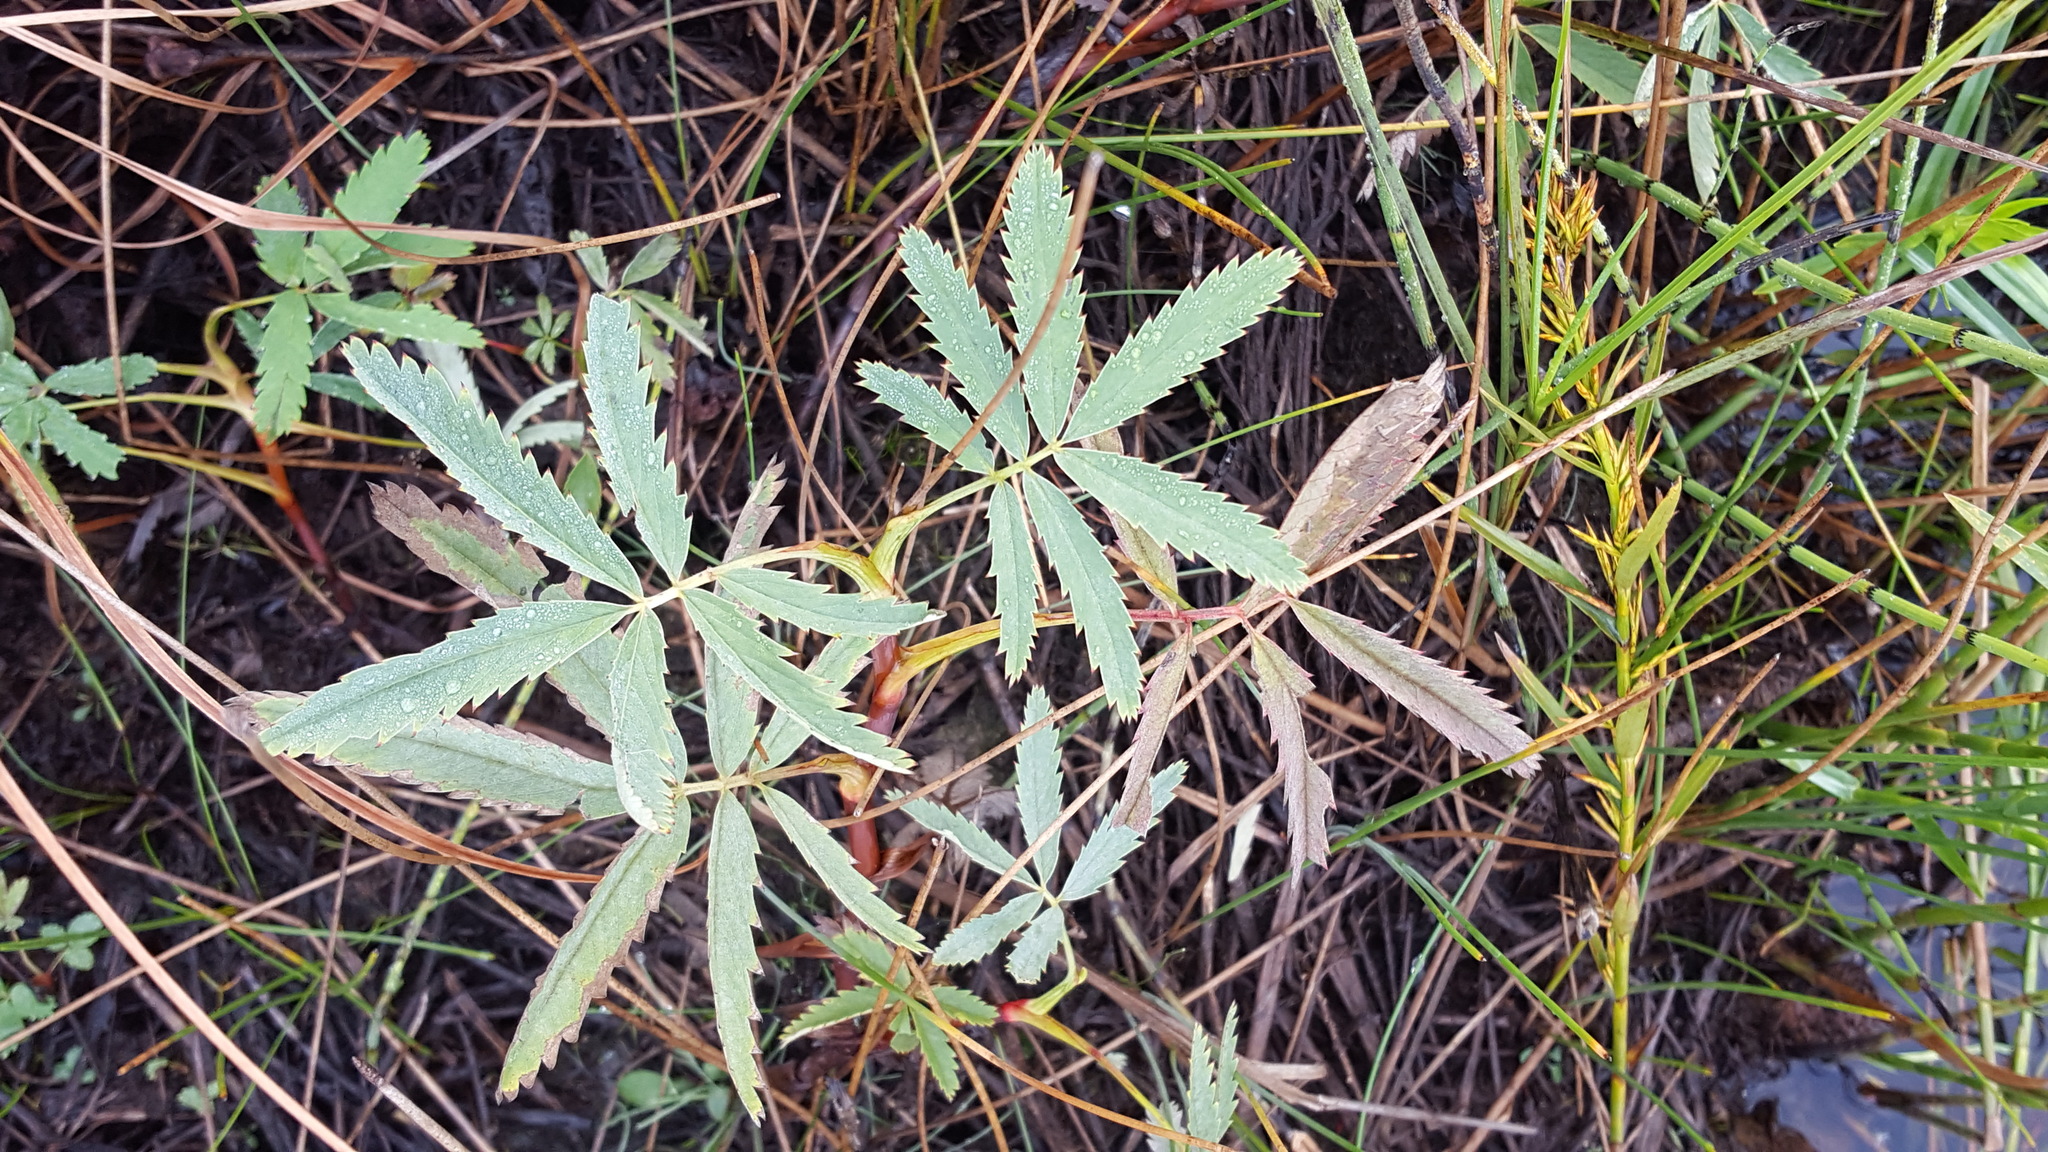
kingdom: Plantae
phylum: Tracheophyta
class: Magnoliopsida
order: Rosales
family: Rosaceae
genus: Comarum
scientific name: Comarum palustre
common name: Marsh cinquefoil
